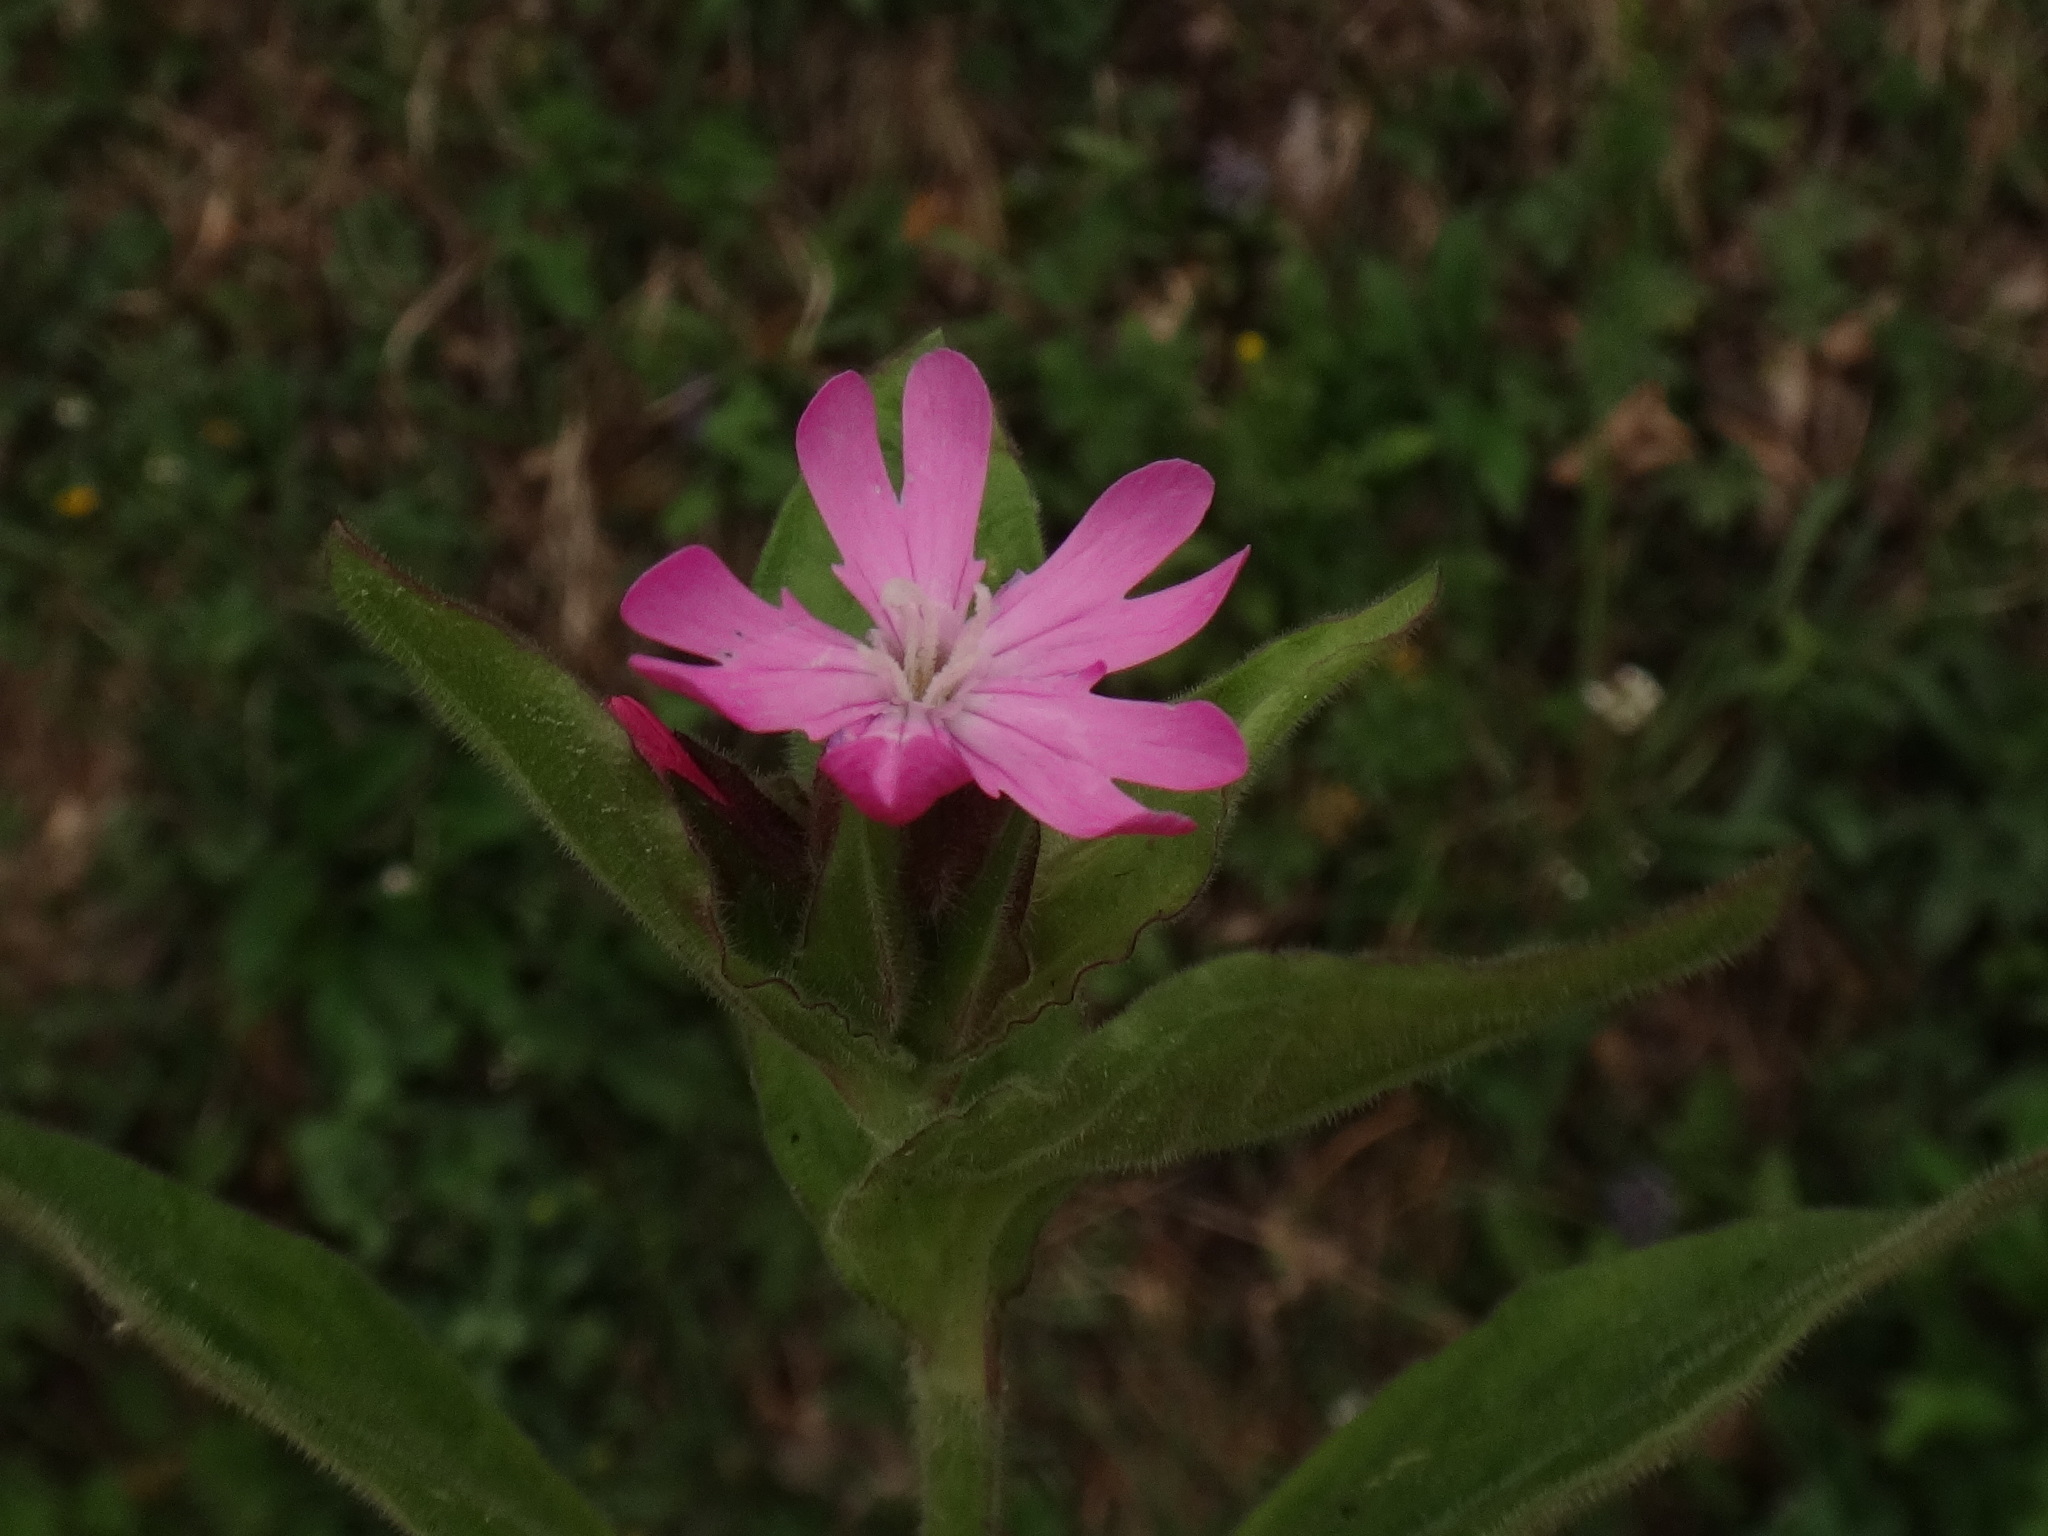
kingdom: Plantae
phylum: Tracheophyta
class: Magnoliopsida
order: Caryophyllales
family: Caryophyllaceae
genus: Silene
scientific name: Silene dioica
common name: Red campion
